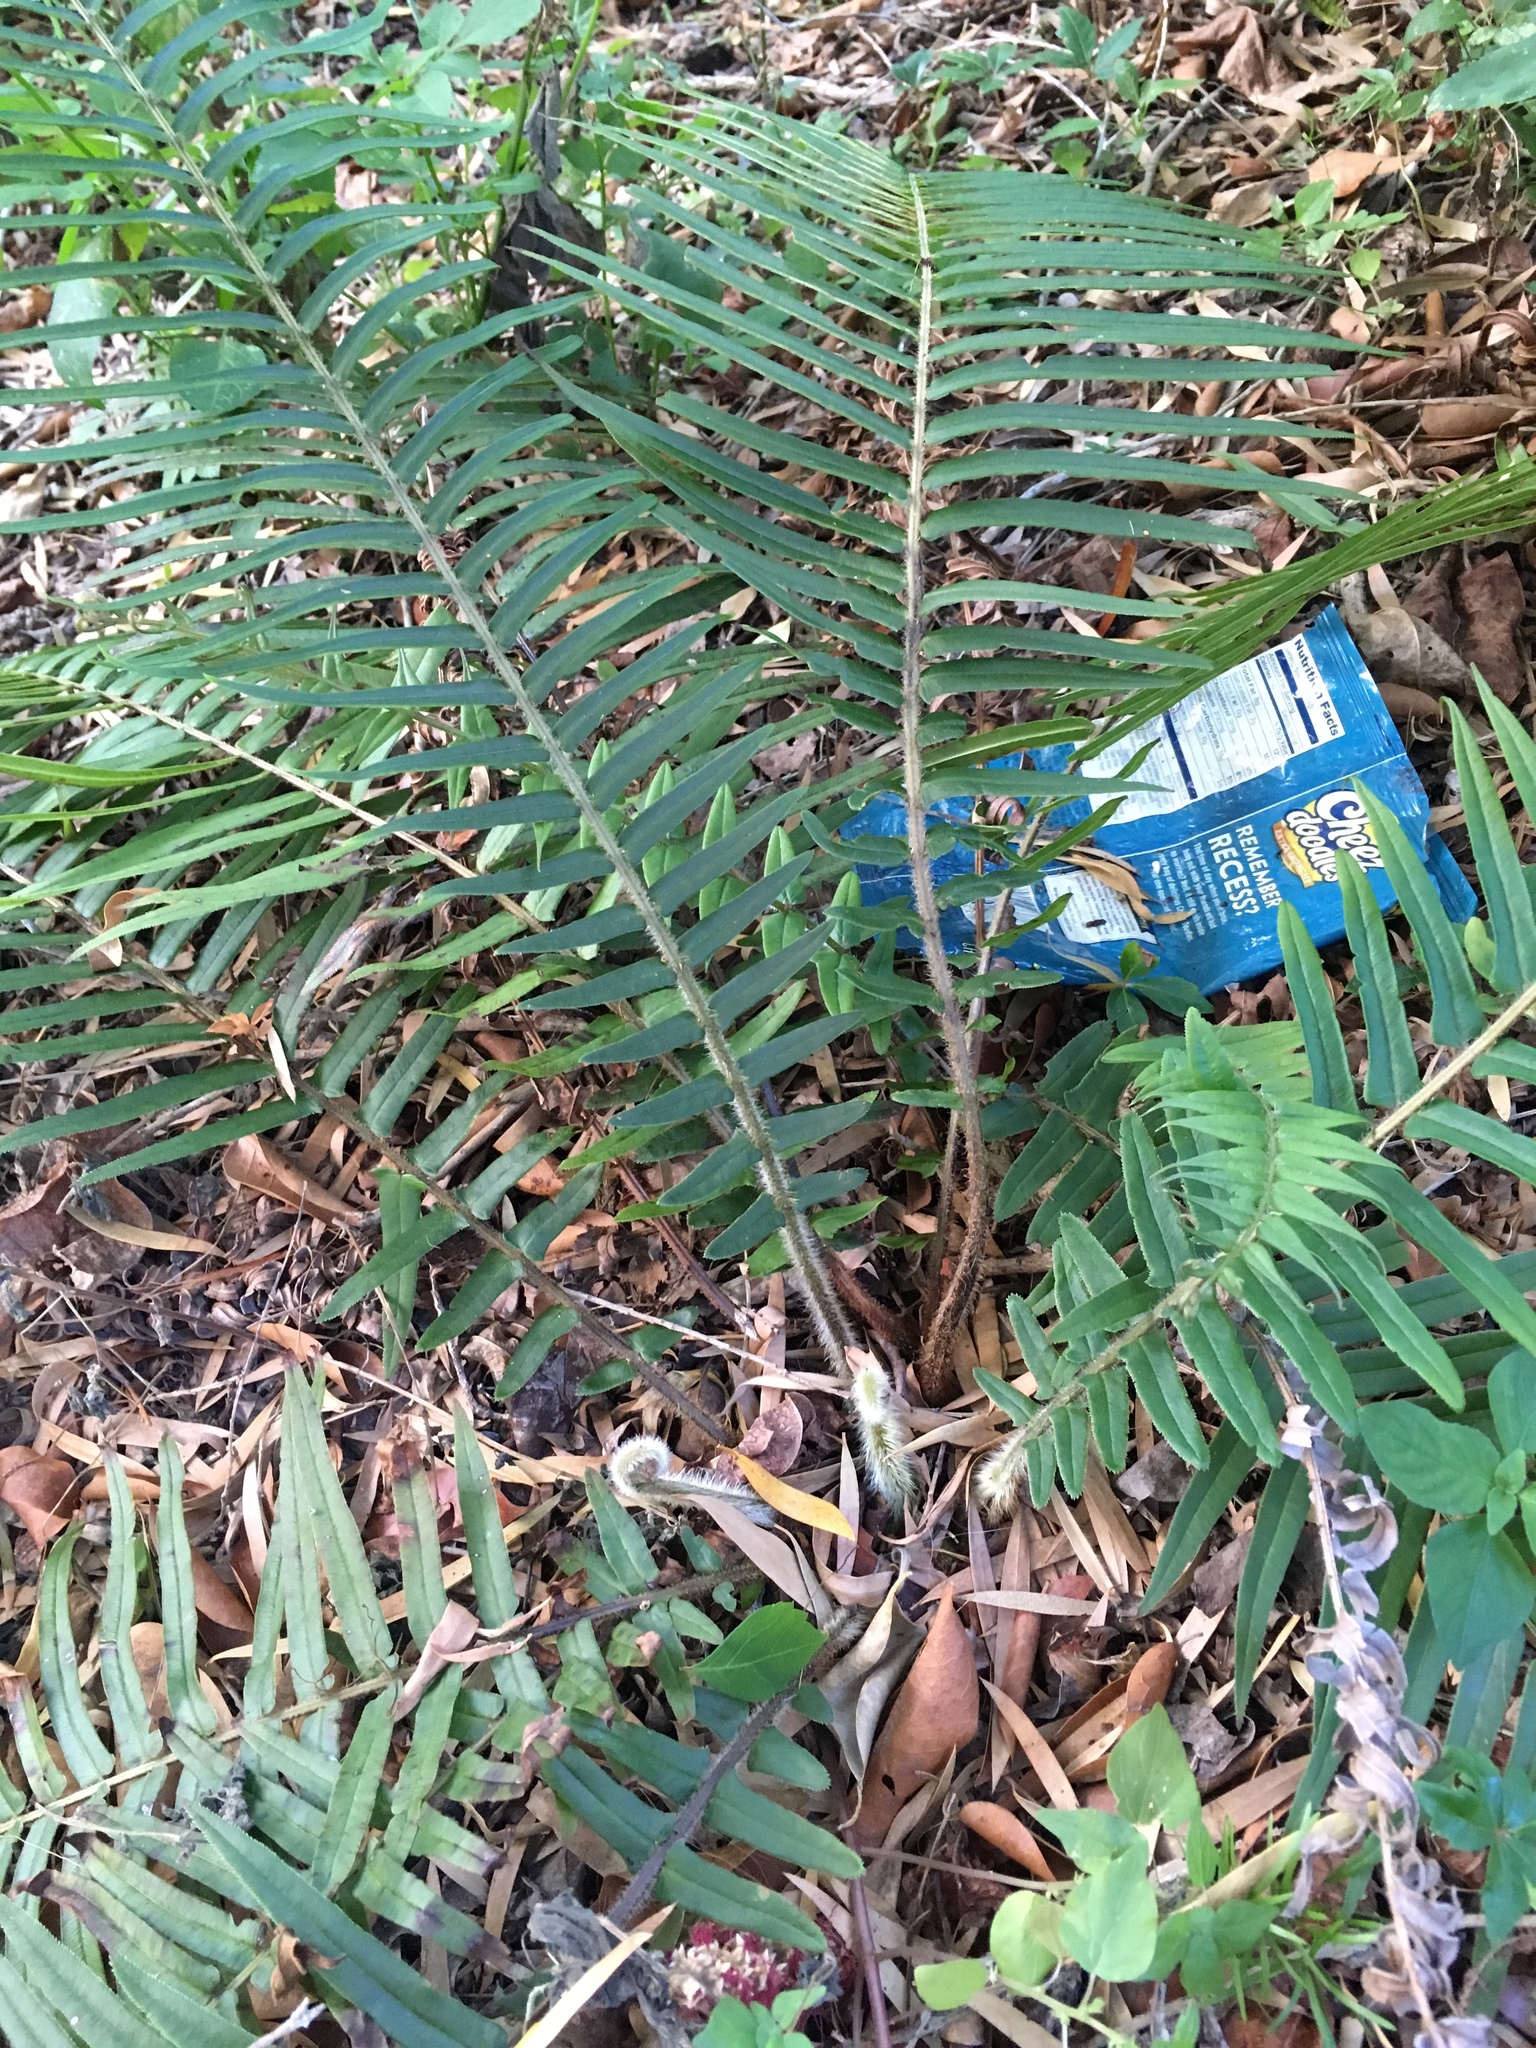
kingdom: Plantae
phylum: Tracheophyta
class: Polypodiopsida
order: Polypodiales
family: Pteridaceae
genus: Pteris
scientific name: Pteris vittata
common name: Ladder brake
